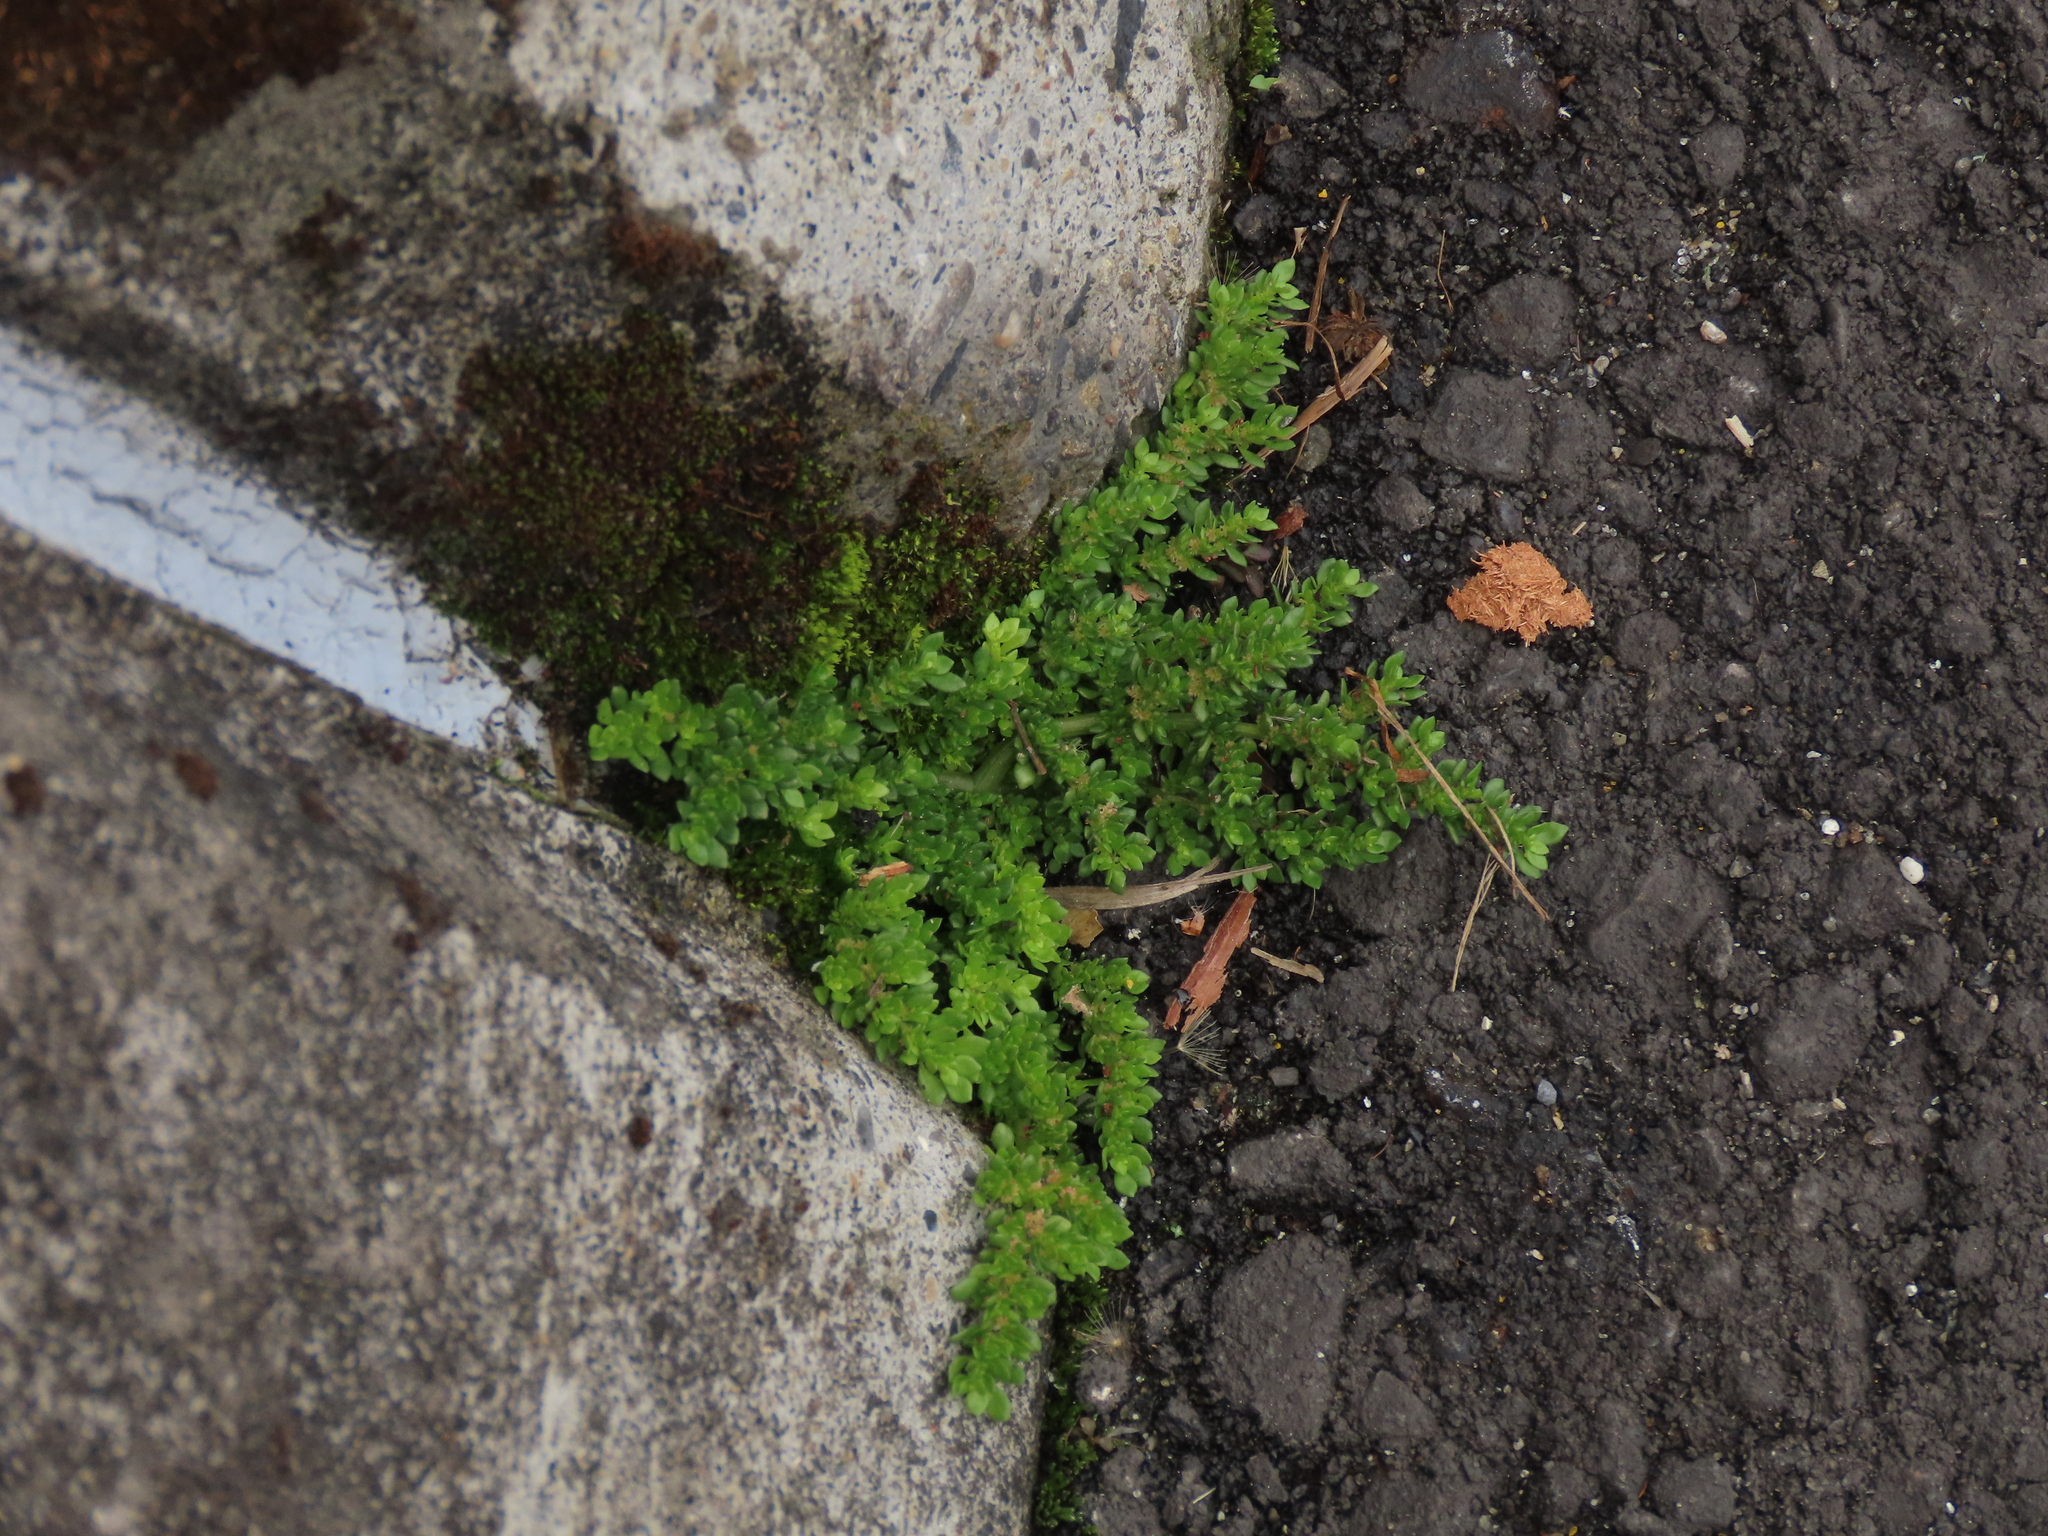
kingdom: Plantae
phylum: Tracheophyta
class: Magnoliopsida
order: Rosales
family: Urticaceae
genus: Pilea
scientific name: Pilea microphylla
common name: Artillery-plant
